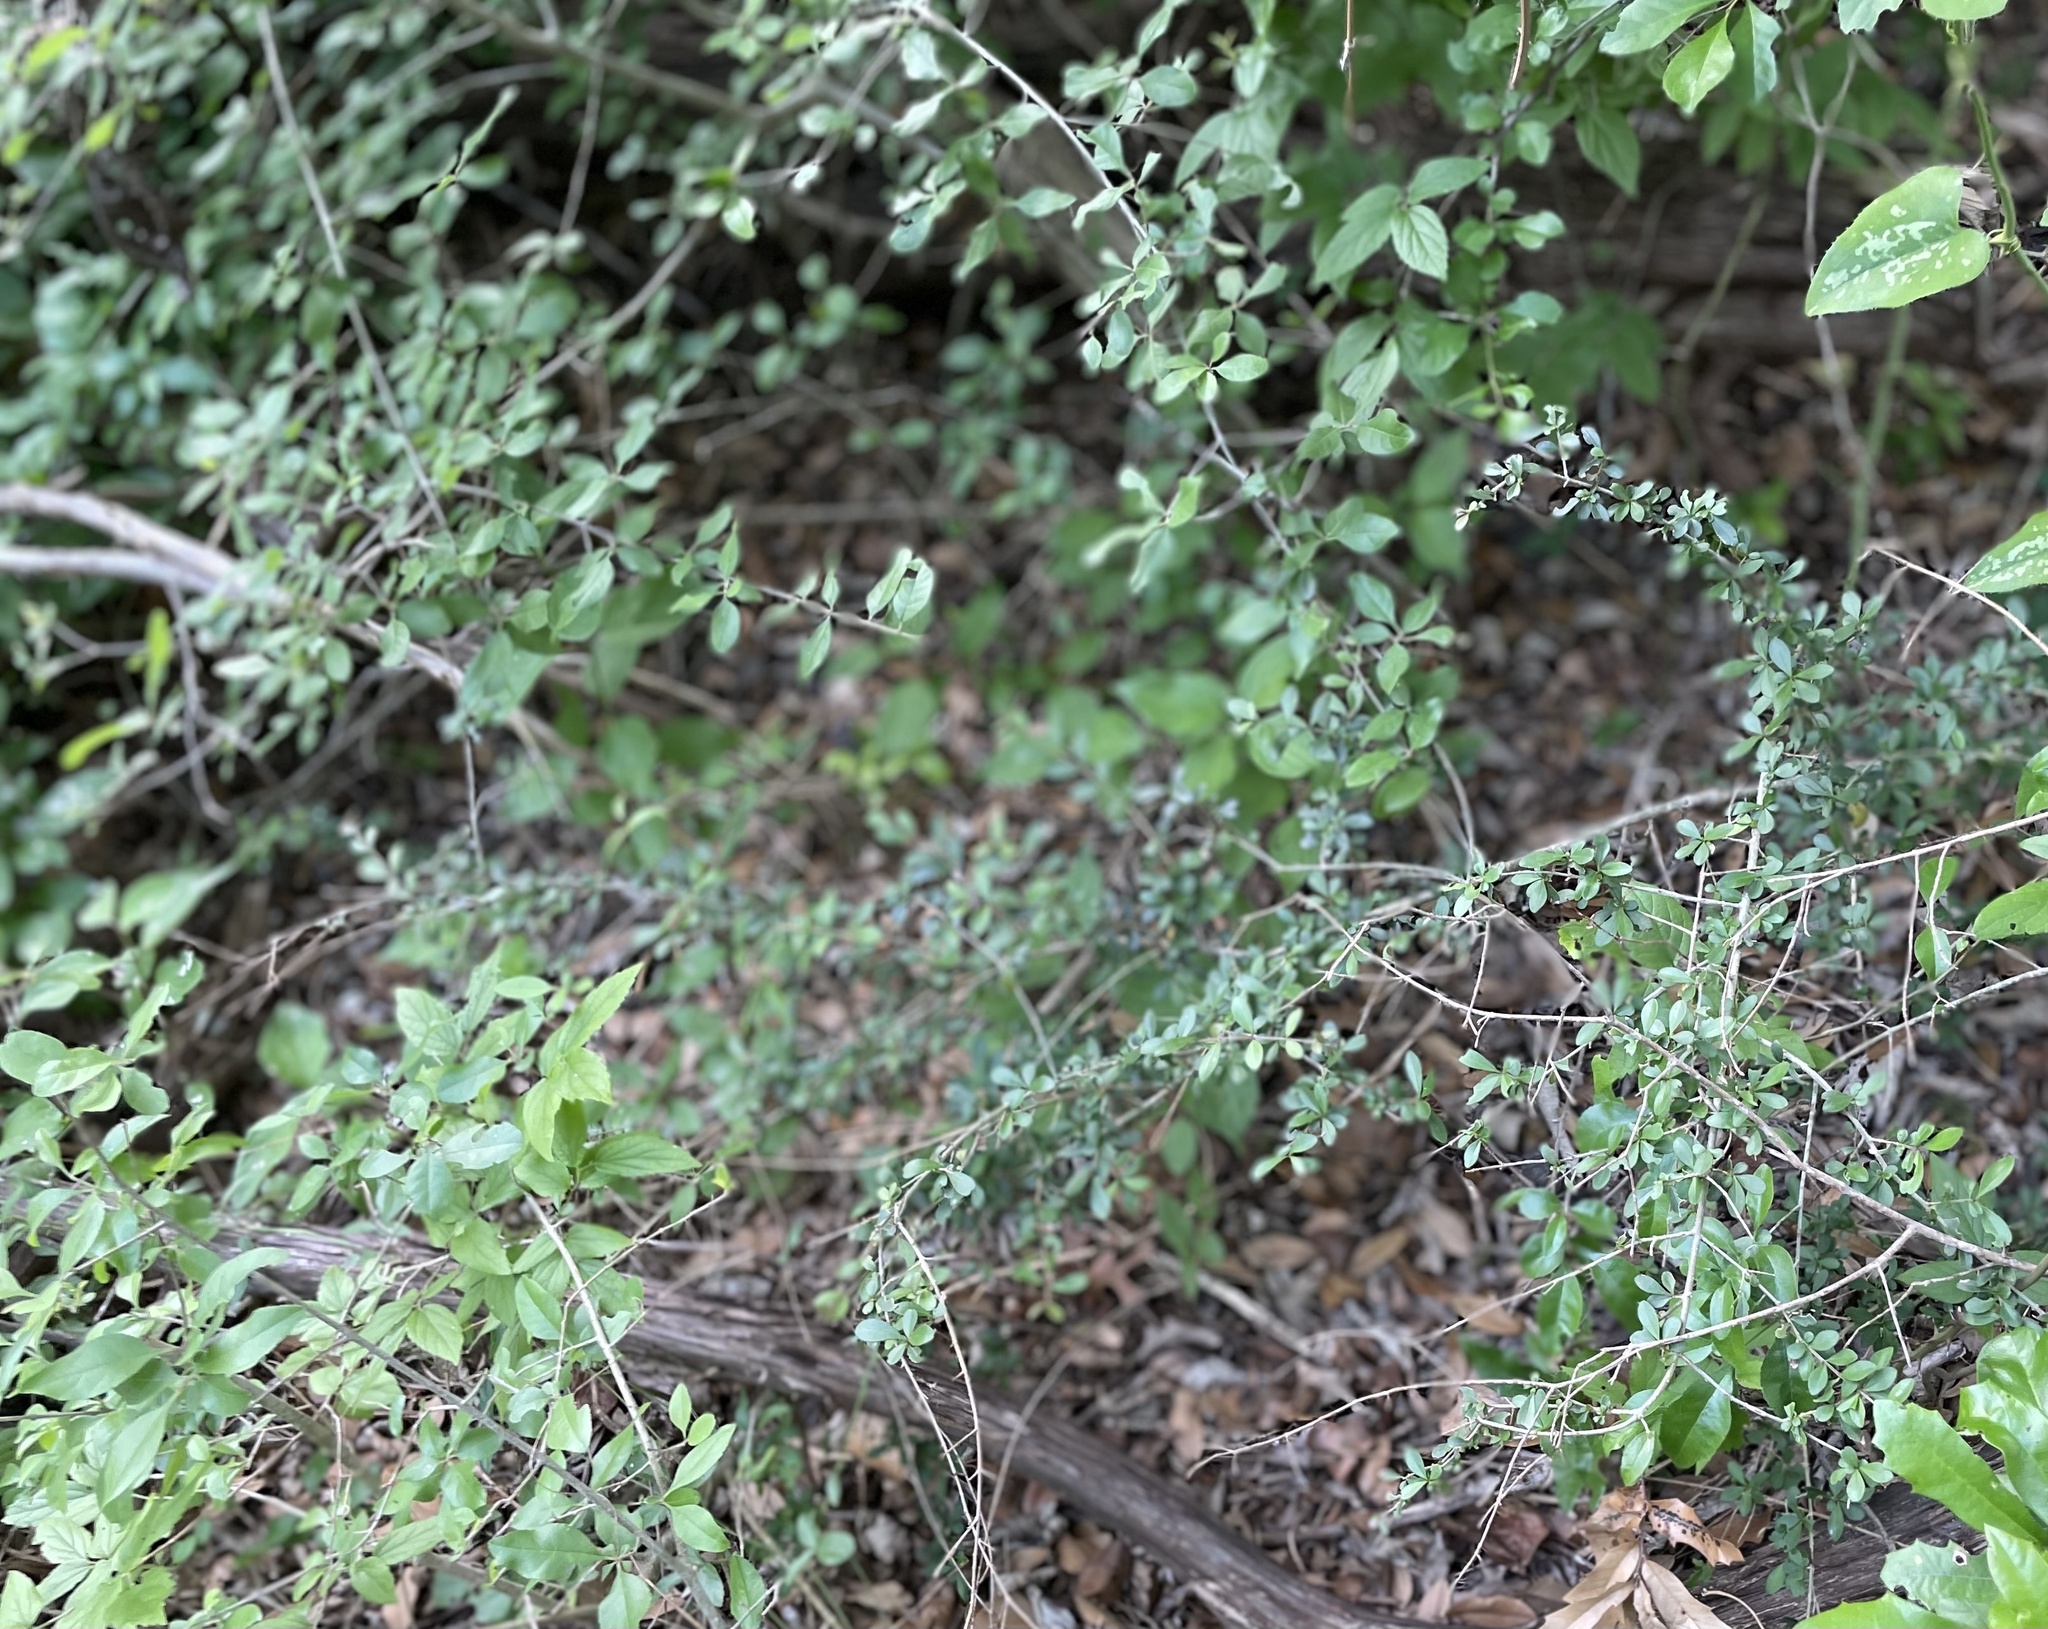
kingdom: Plantae
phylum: Tracheophyta
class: Magnoliopsida
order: Lamiales
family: Oleaceae
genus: Ligustrum
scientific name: Ligustrum quihoui
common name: Waxyleaf privet
